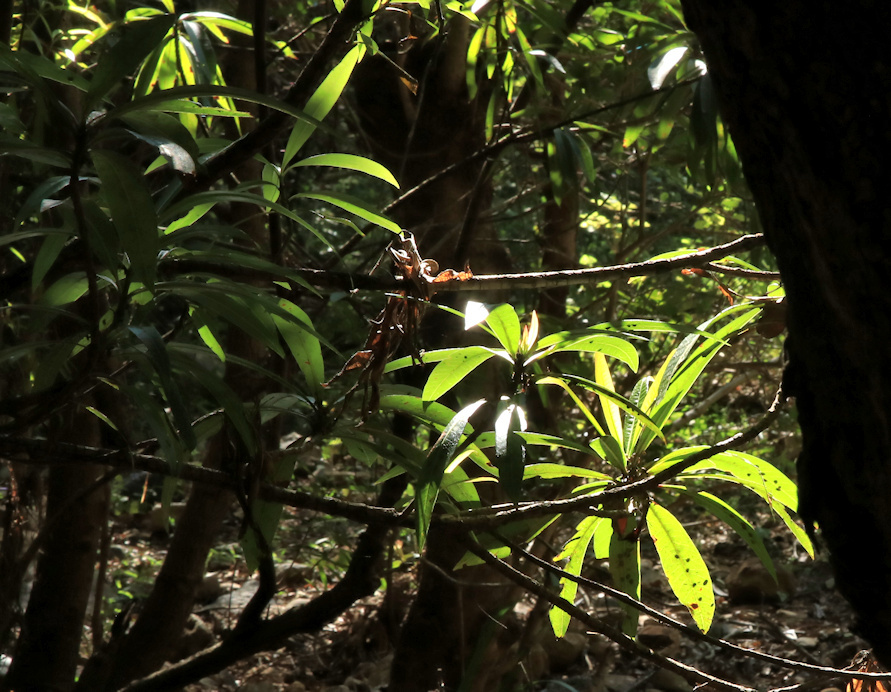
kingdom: Plantae
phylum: Tracheophyta
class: Magnoliopsida
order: Gentianales
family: Rubiaceae
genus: Breonadia
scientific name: Breonadia salicina
